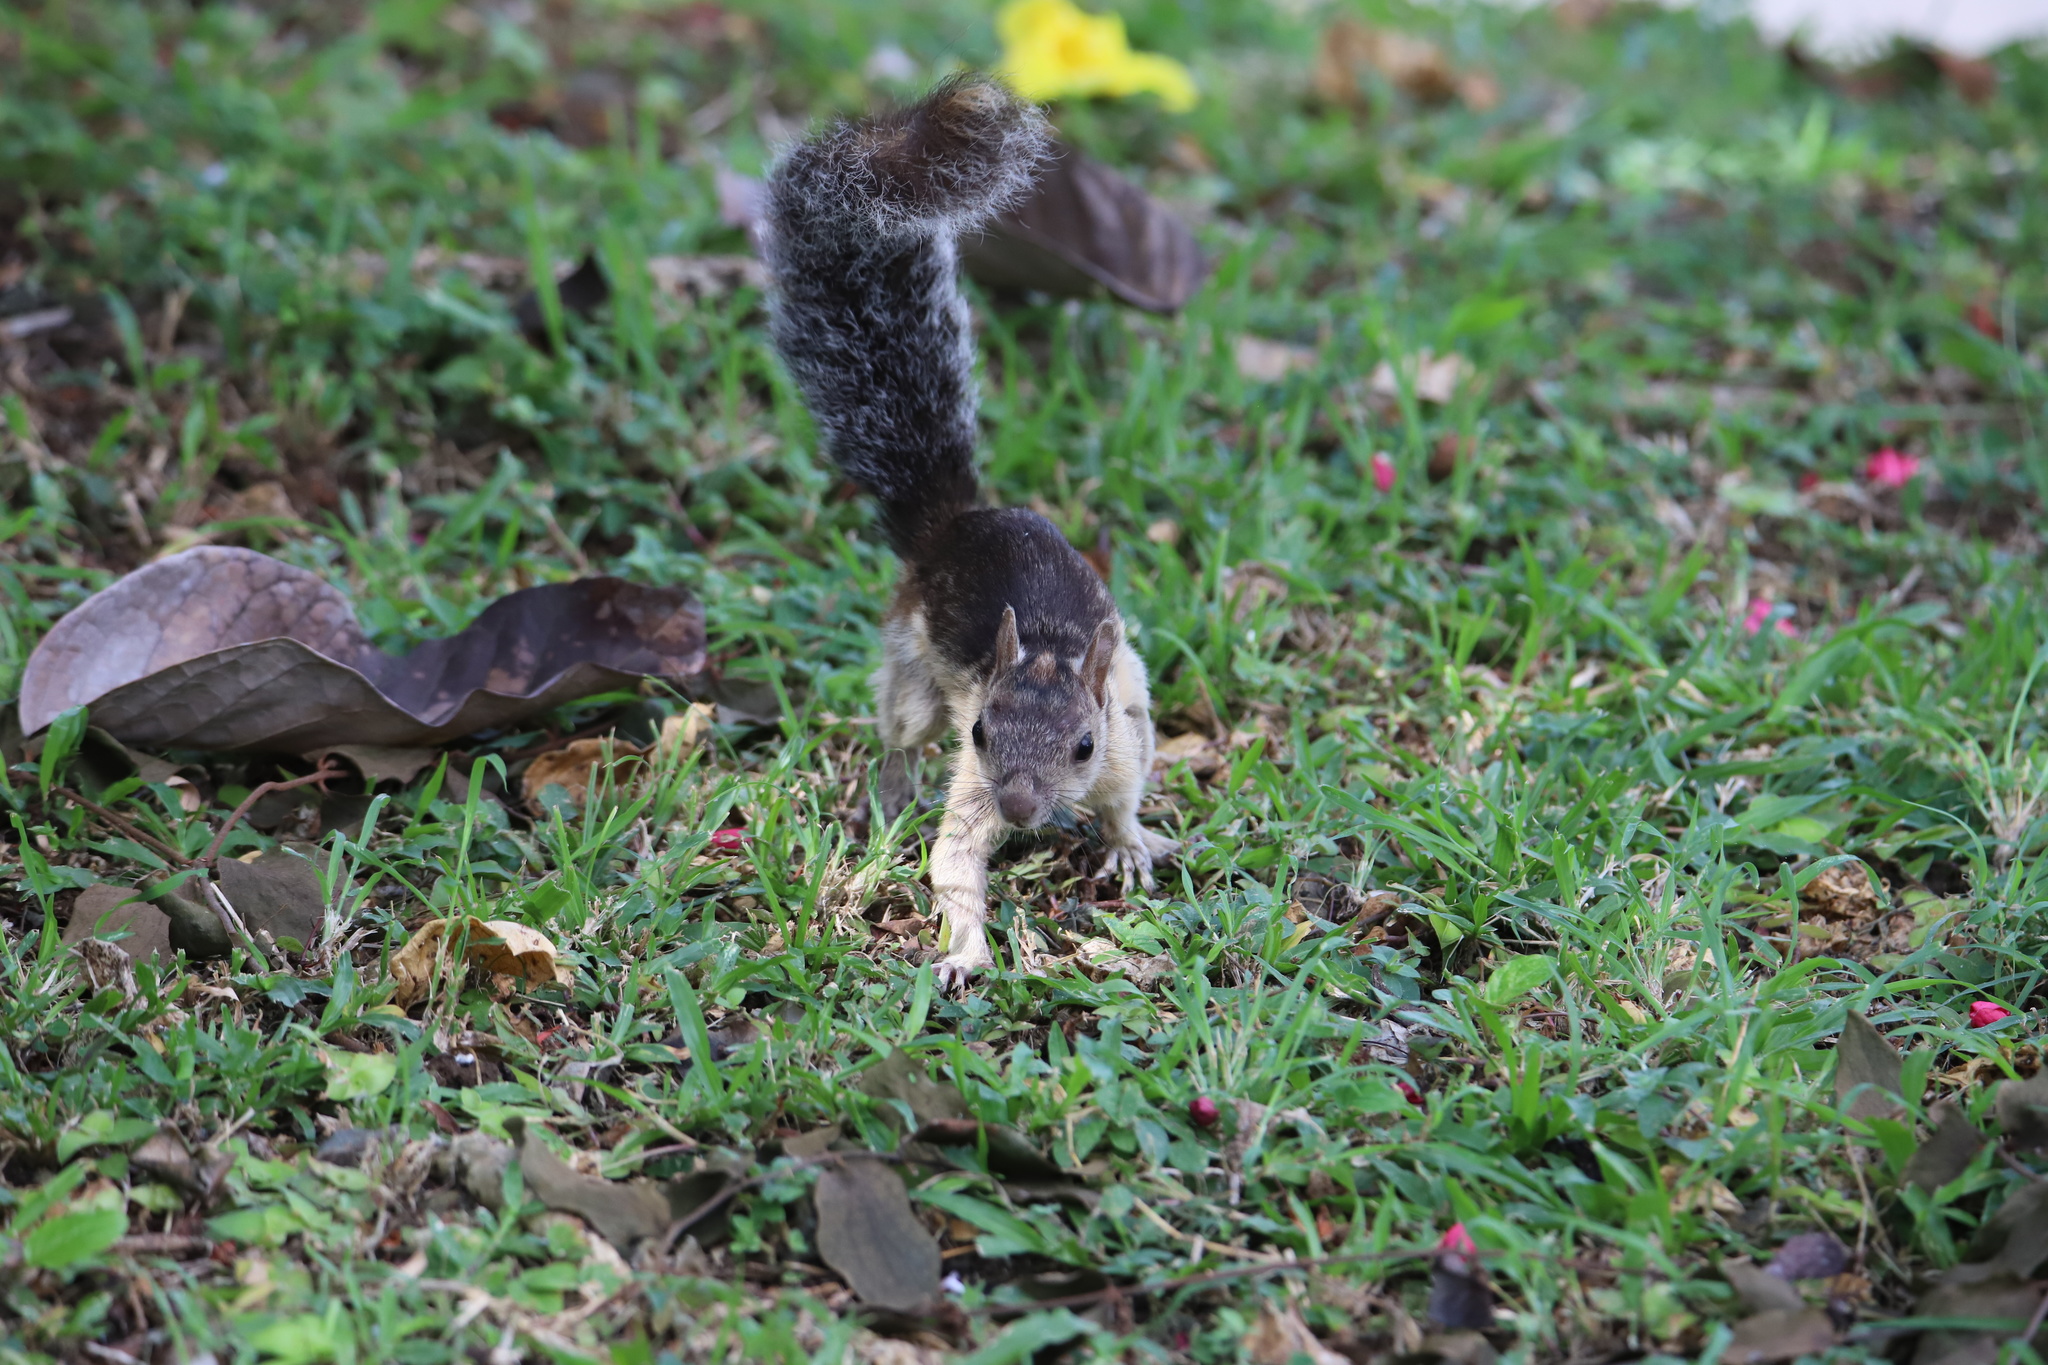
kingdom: Animalia
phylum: Chordata
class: Mammalia
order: Rodentia
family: Sciuridae
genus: Sciurus
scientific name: Sciurus variegatoides
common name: Variegated squirrel
